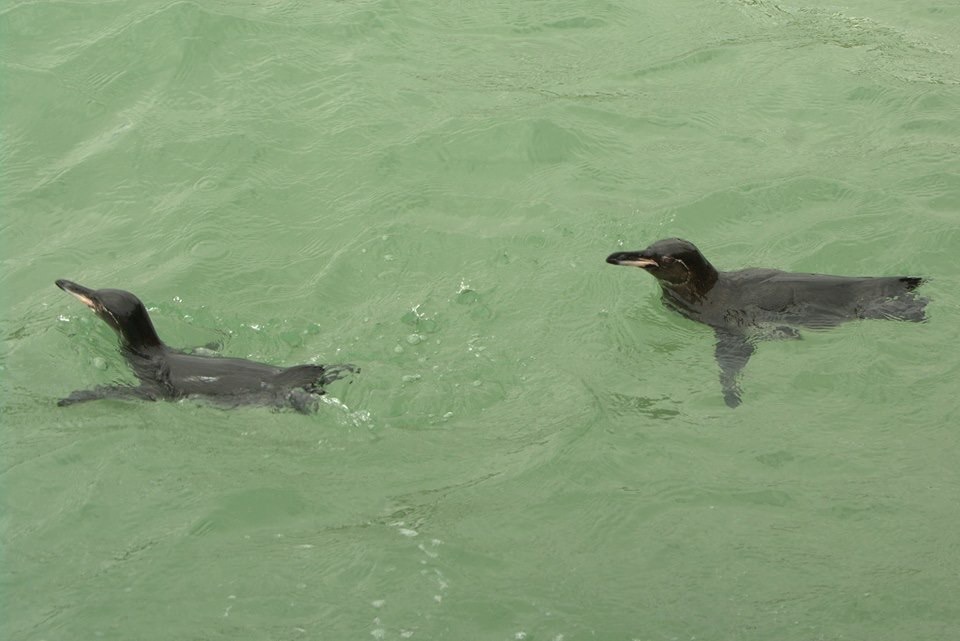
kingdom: Animalia
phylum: Chordata
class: Aves
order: Sphenisciformes
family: Spheniscidae
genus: Spheniscus
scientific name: Spheniscus mendiculus
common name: Galapagos penguin
